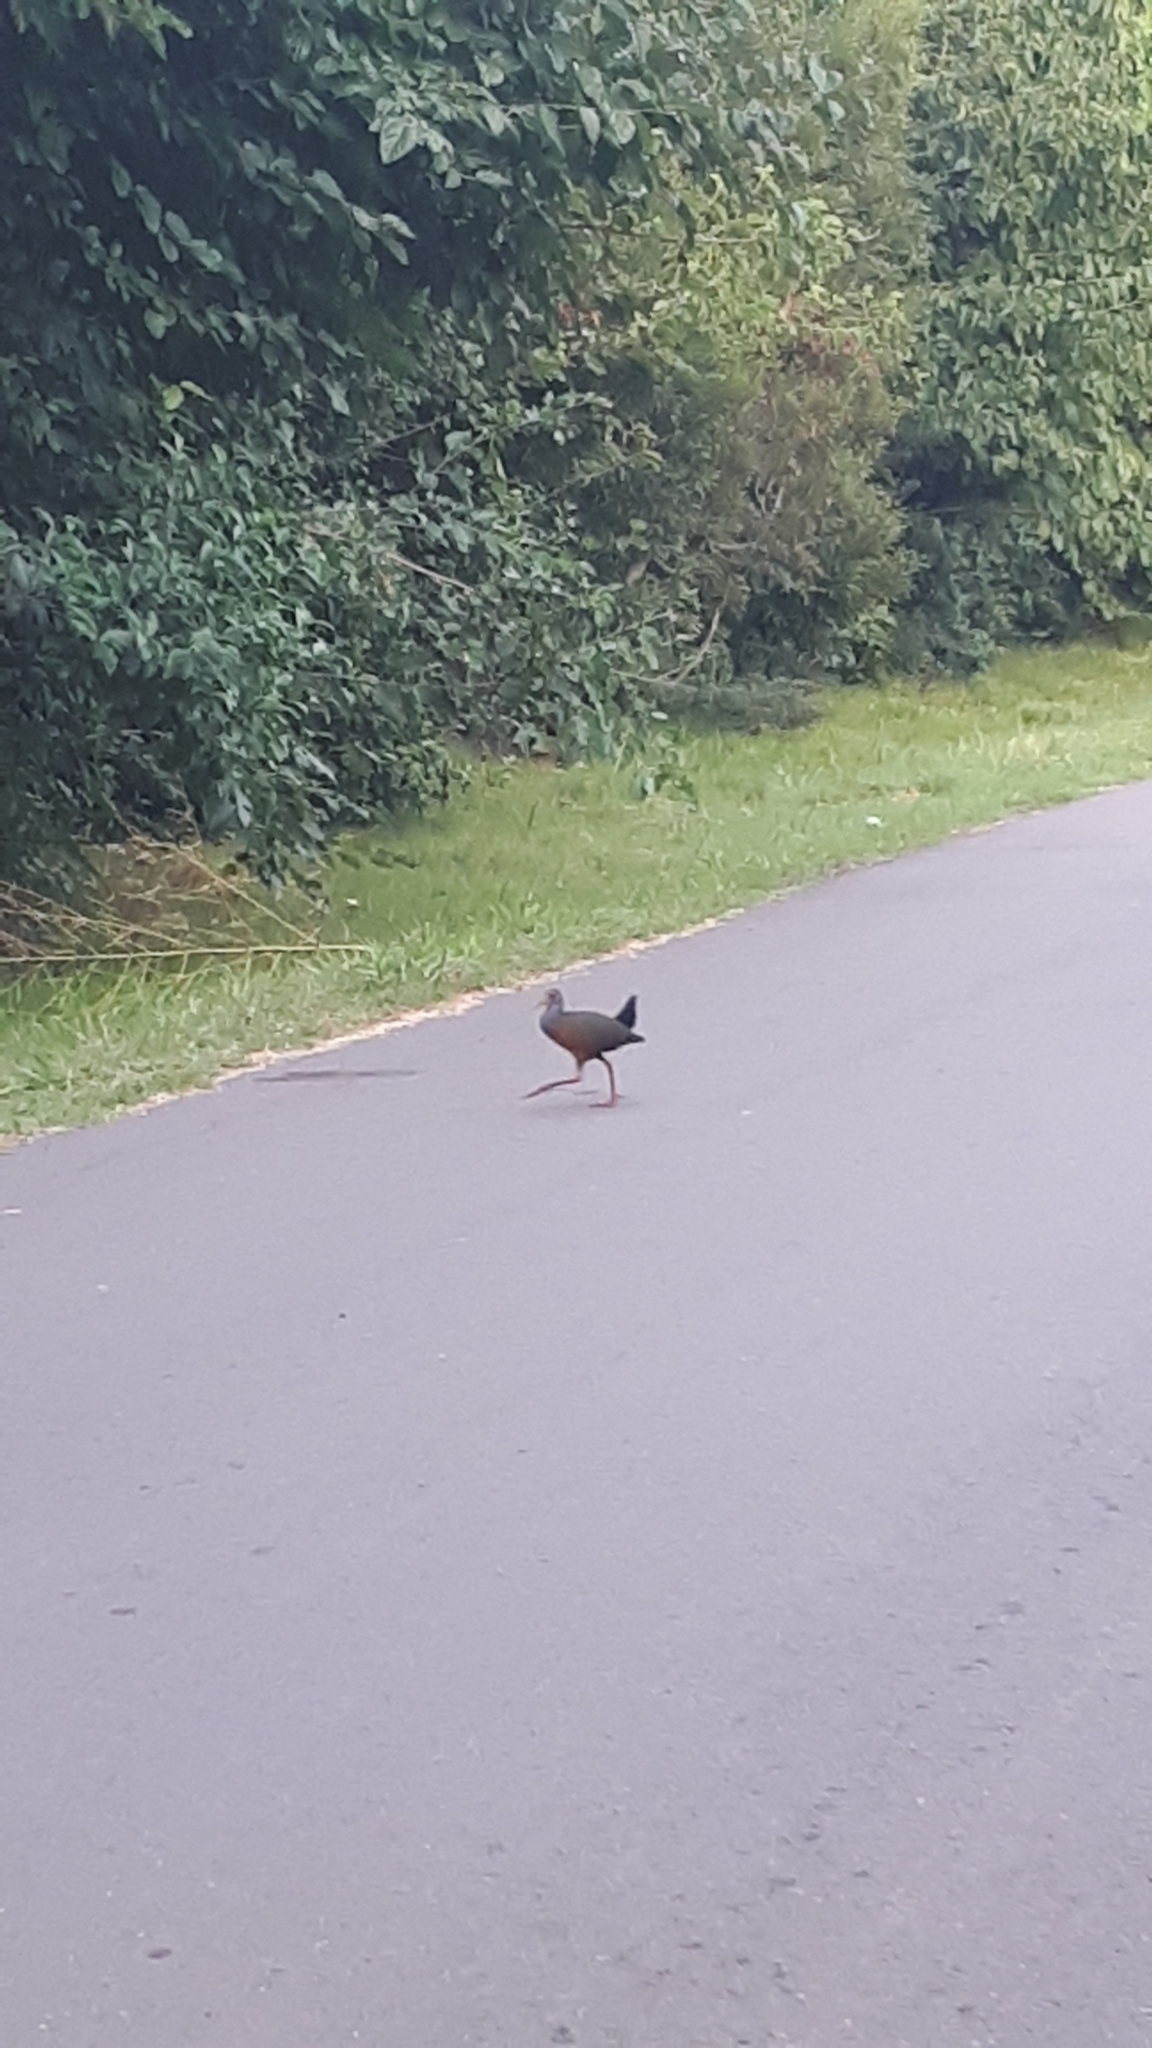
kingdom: Animalia
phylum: Chordata
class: Aves
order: Gruiformes
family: Rallidae
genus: Aramides
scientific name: Aramides cajanea
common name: Gray-necked wood-rail
